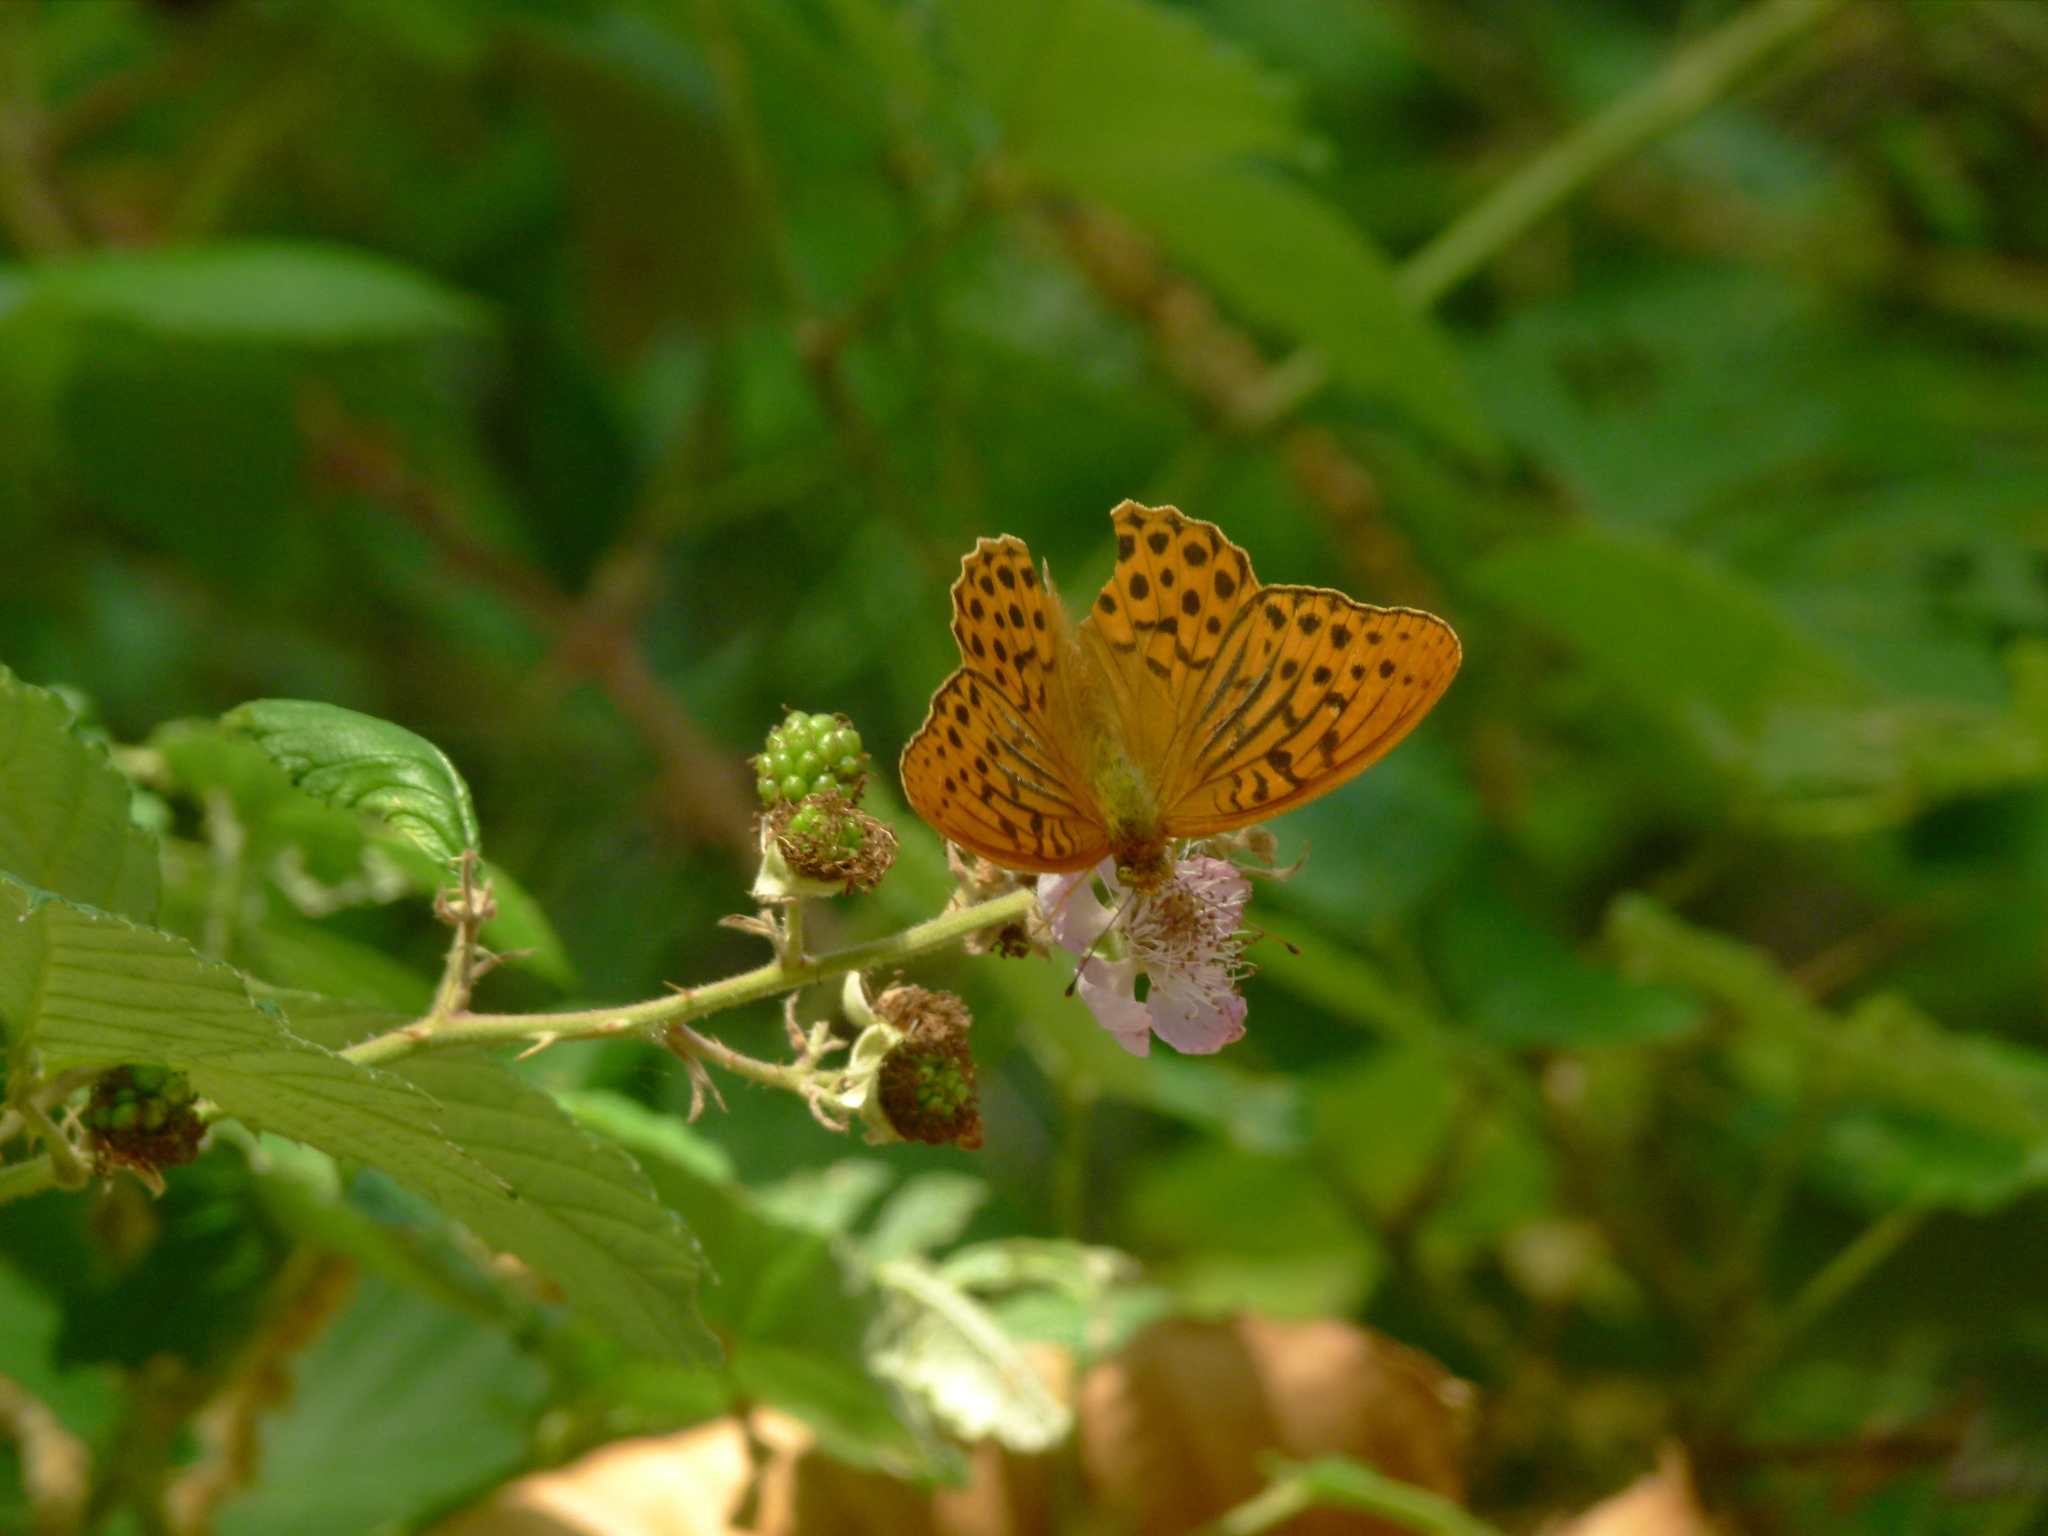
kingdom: Animalia
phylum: Arthropoda
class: Insecta
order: Lepidoptera
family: Nymphalidae
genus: Argynnis
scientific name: Argynnis paphia
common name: Silver-washed fritillary
